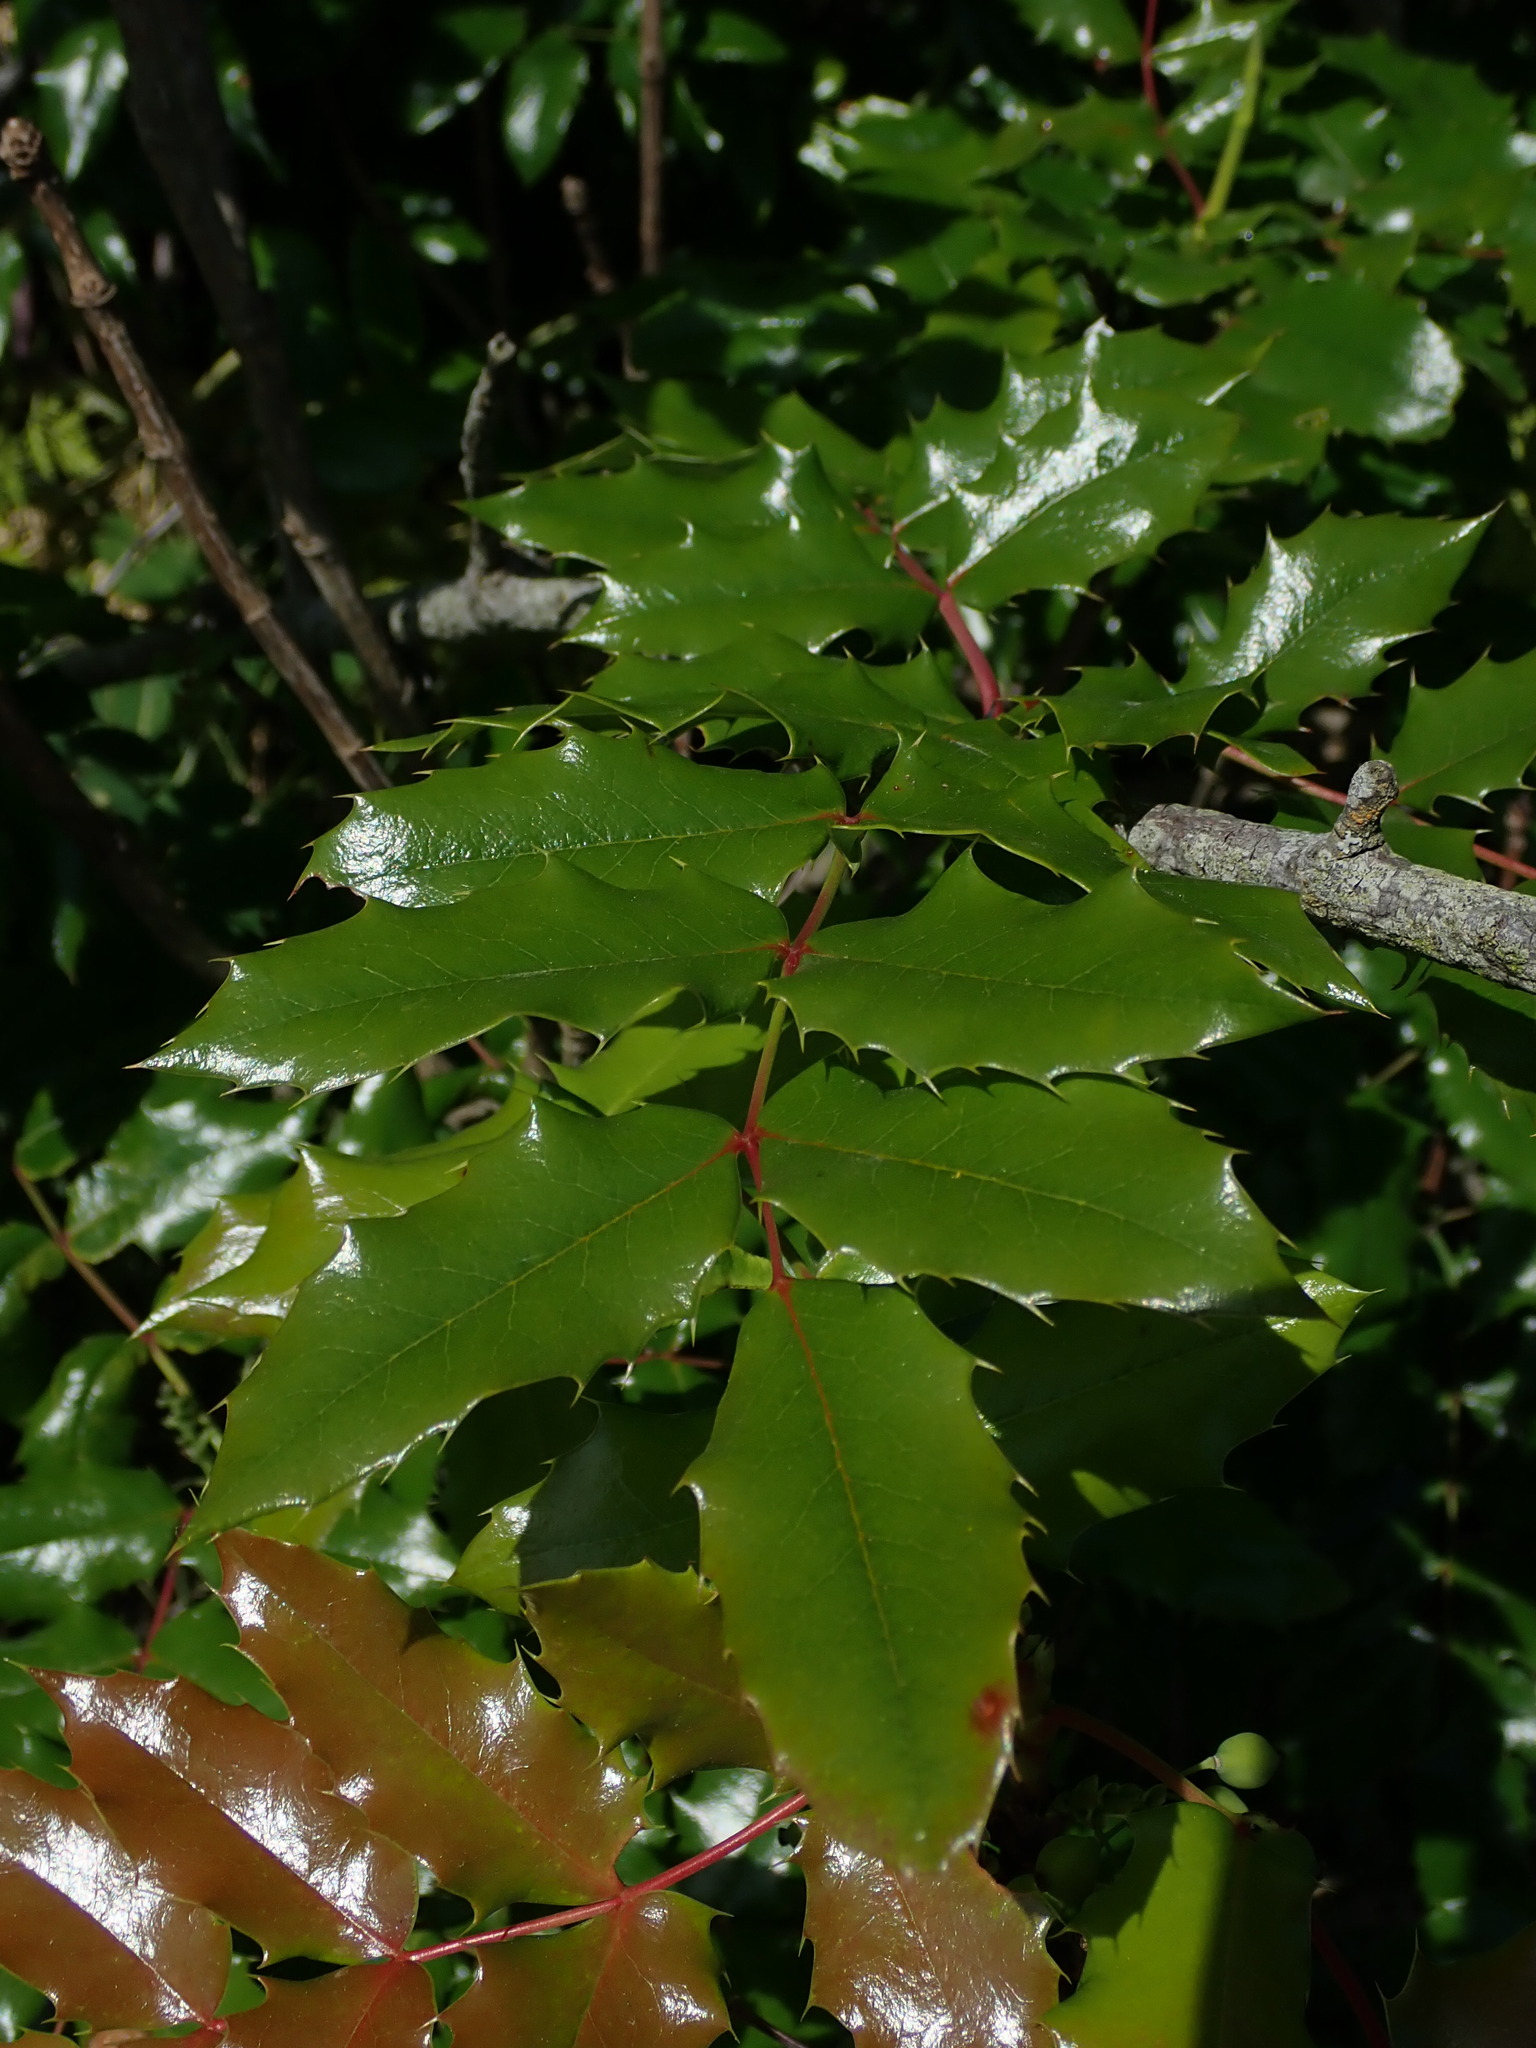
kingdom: Plantae
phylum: Tracheophyta
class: Magnoliopsida
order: Ranunculales
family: Berberidaceae
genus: Mahonia
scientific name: Mahonia aquifolium
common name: Oregon-grape
